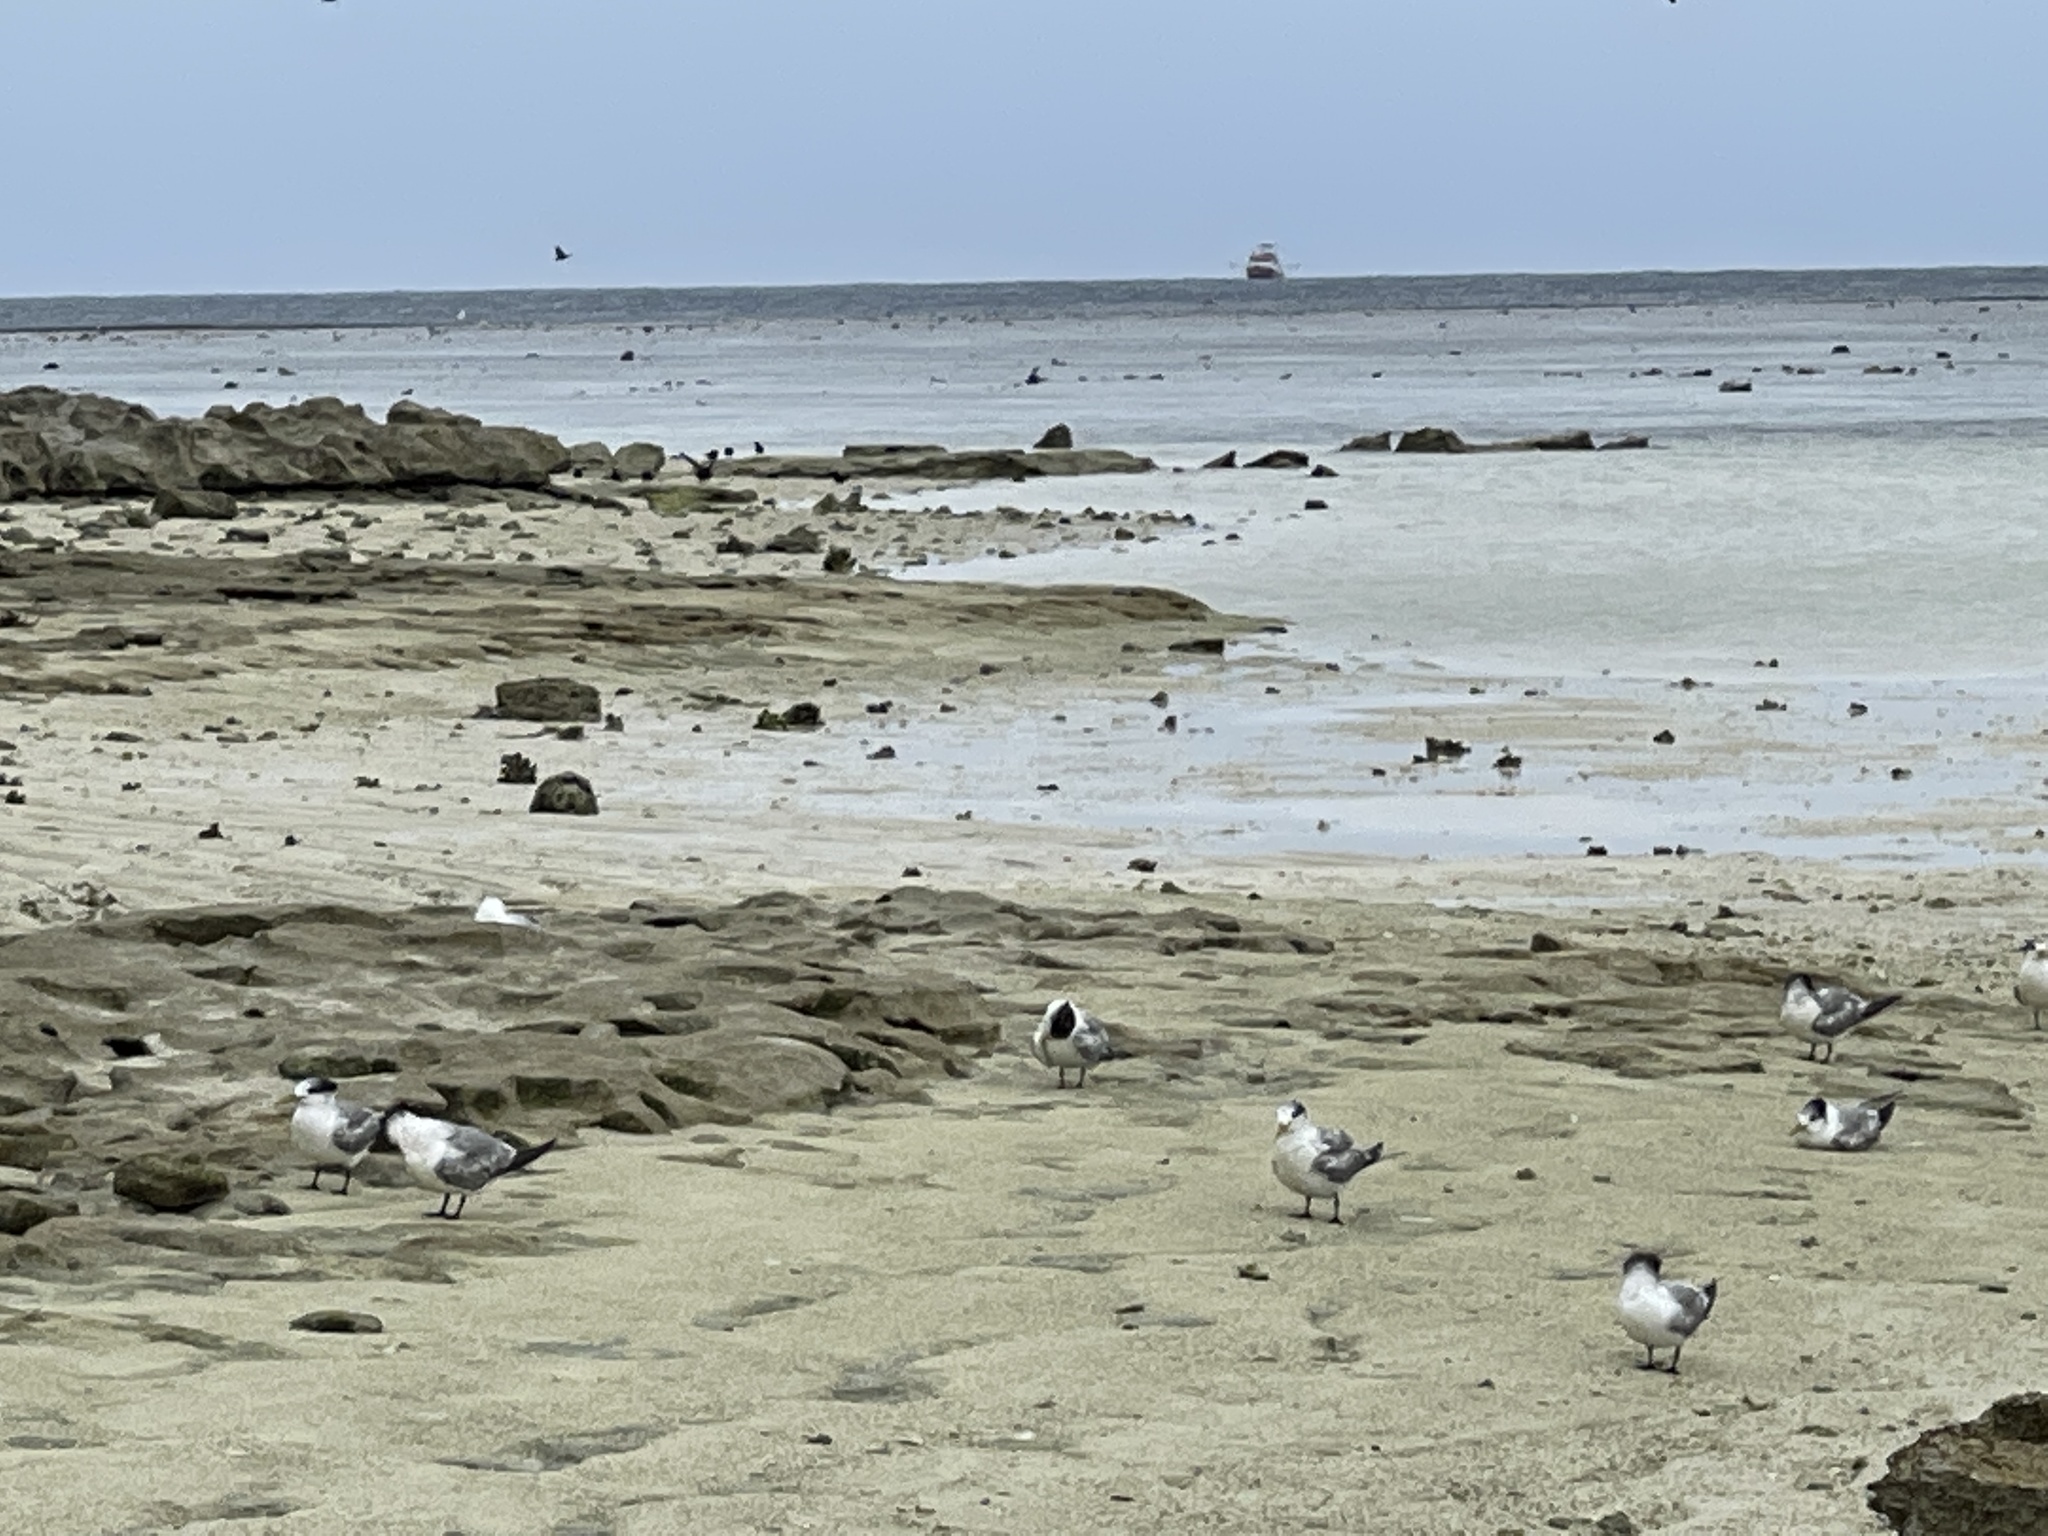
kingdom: Animalia
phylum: Chordata
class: Aves
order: Charadriiformes
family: Laridae
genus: Thalasseus
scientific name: Thalasseus bergii
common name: Greater crested tern
